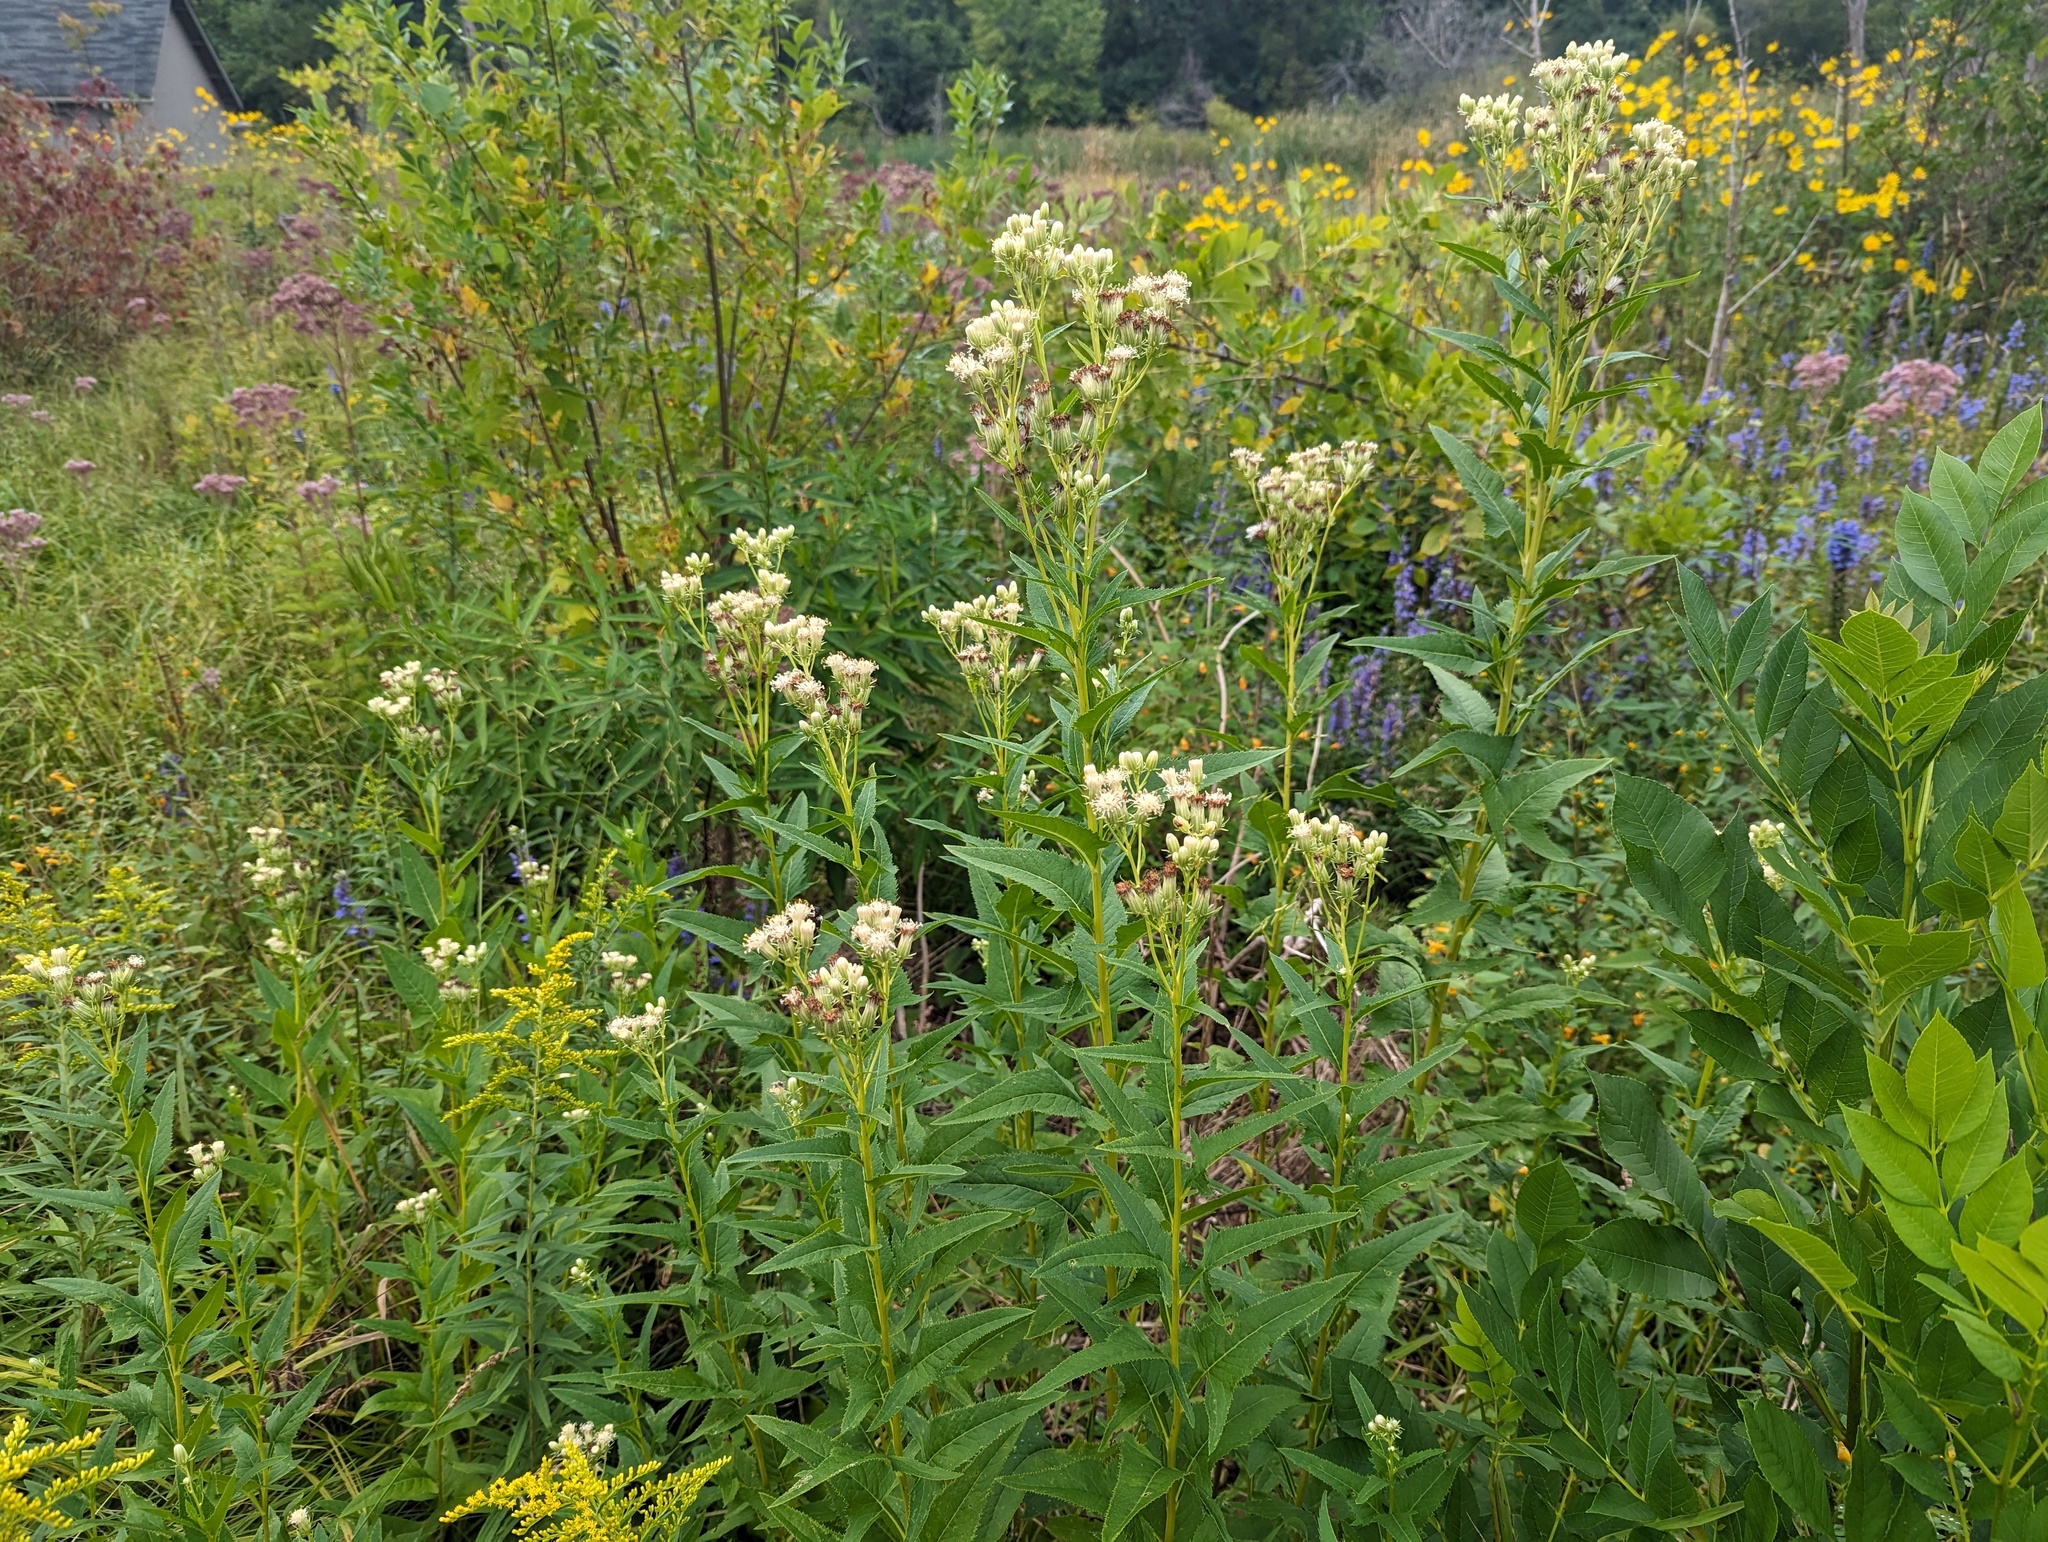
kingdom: Plantae
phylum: Tracheophyta
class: Magnoliopsida
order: Asterales
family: Asteraceae
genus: Hasteola
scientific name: Hasteola suaveolens
